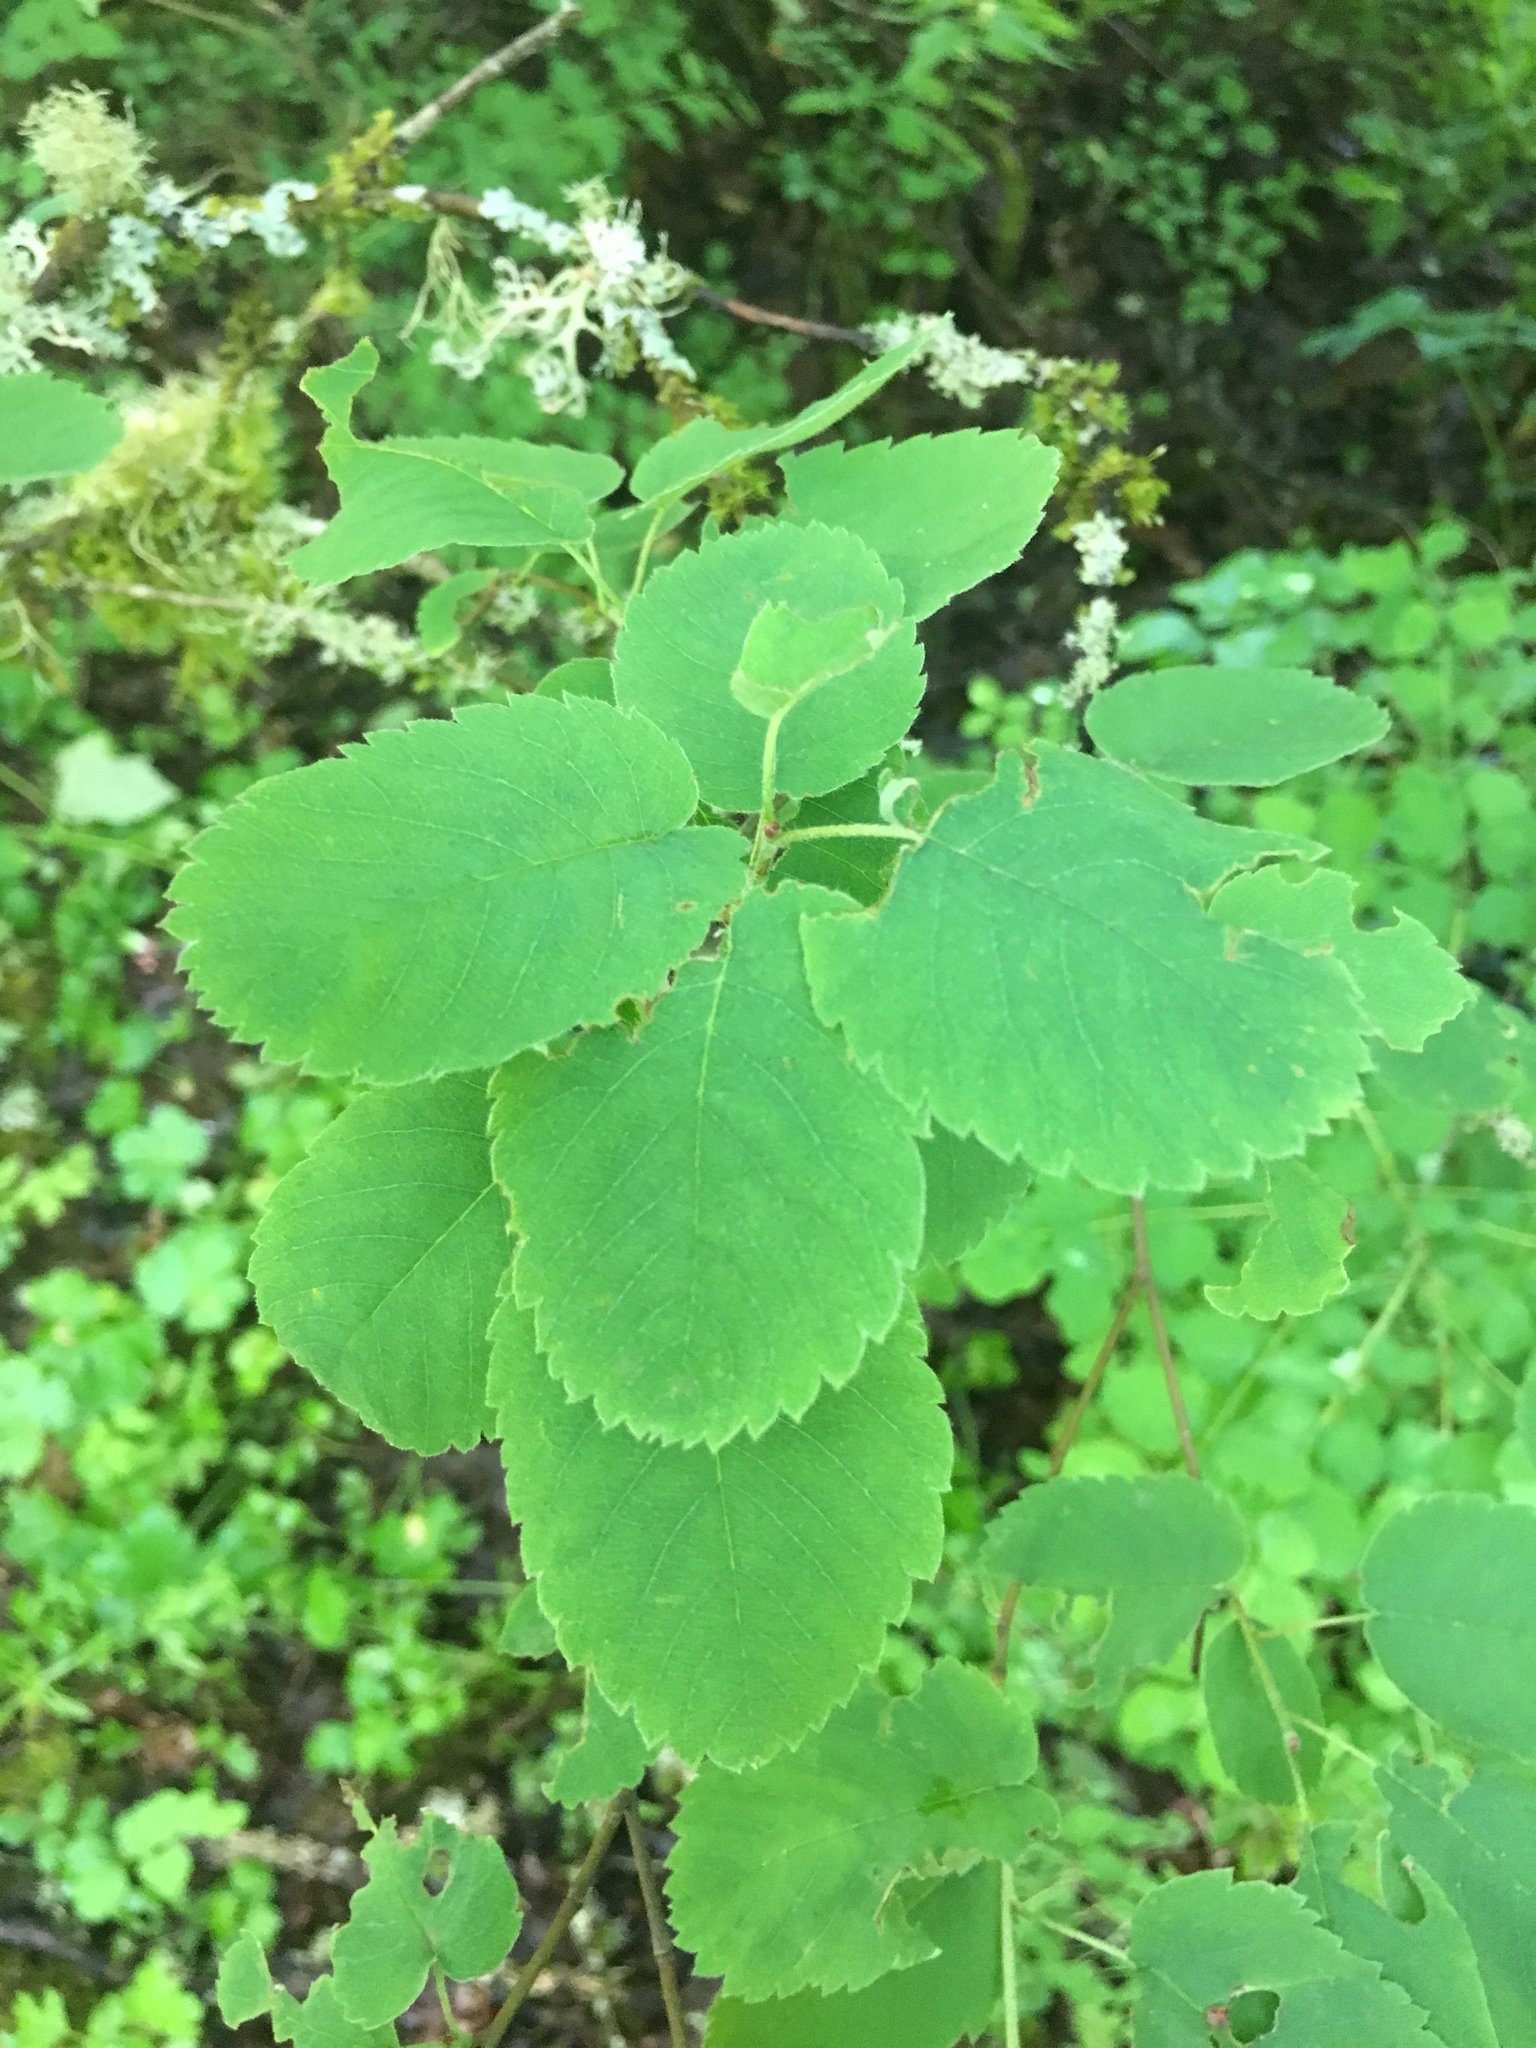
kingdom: Plantae
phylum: Tracheophyta
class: Magnoliopsida
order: Rosales
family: Rosaceae
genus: Amelanchier
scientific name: Amelanchier alnifolia
